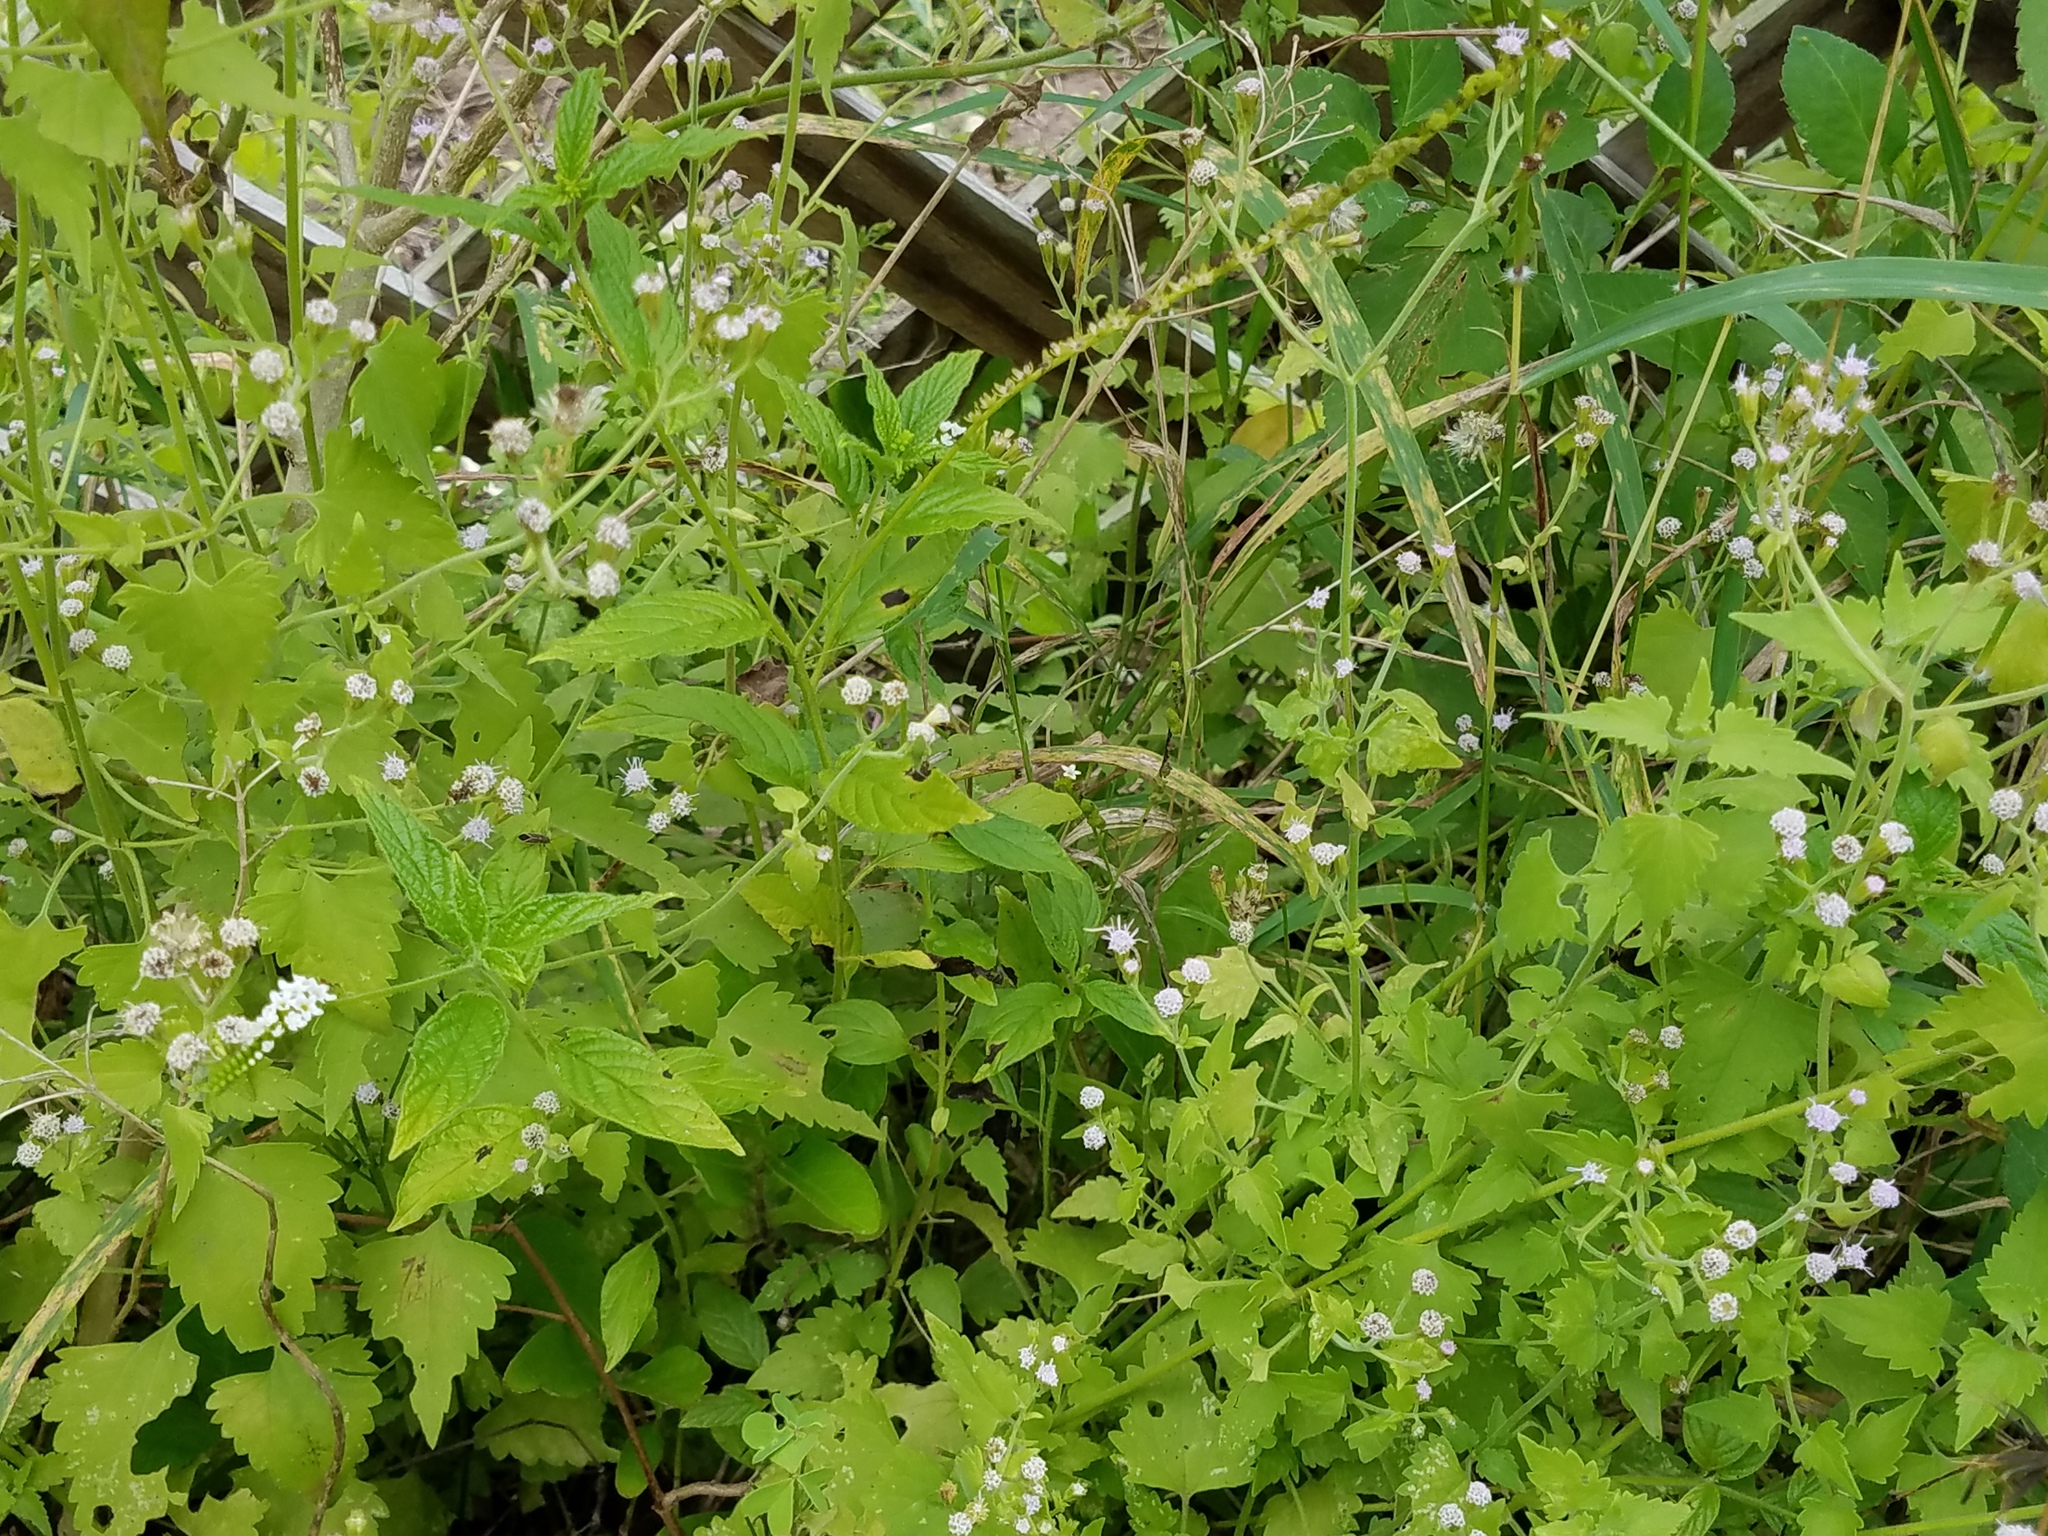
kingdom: Plantae
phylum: Tracheophyta
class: Magnoliopsida
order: Asterales
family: Asteraceae
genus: Fleischmannia
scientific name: Fleischmannia incarnata
